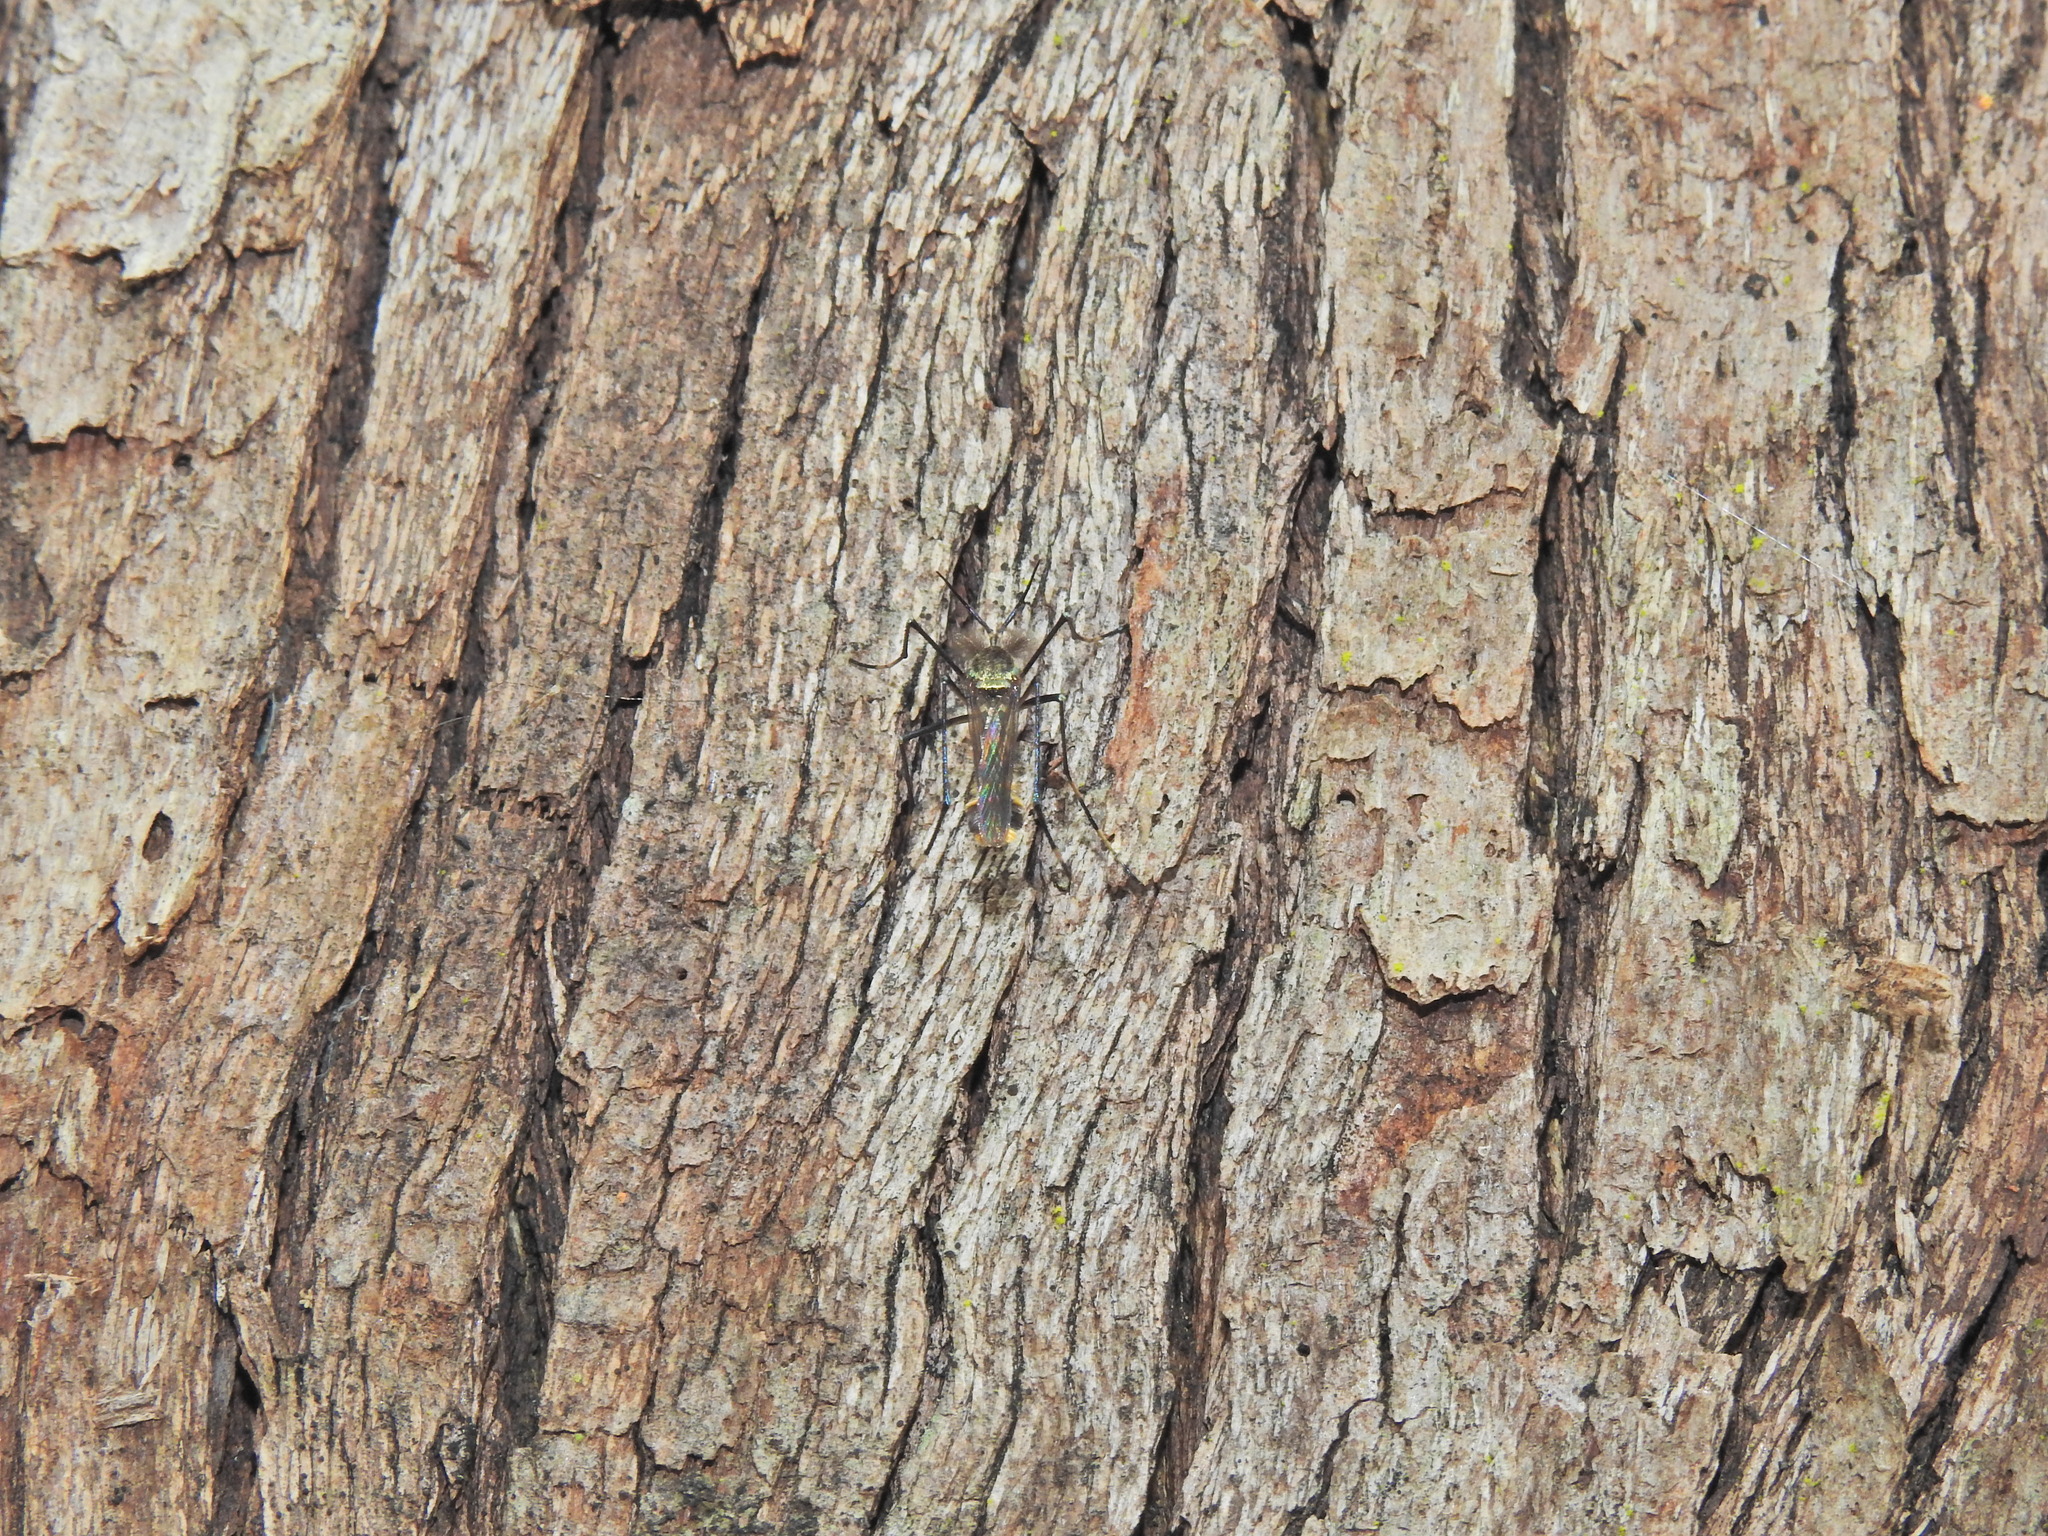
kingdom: Animalia
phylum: Arthropoda
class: Insecta
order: Diptera
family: Culicidae
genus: Toxorhynchites
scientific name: Toxorhynchites speciosus
